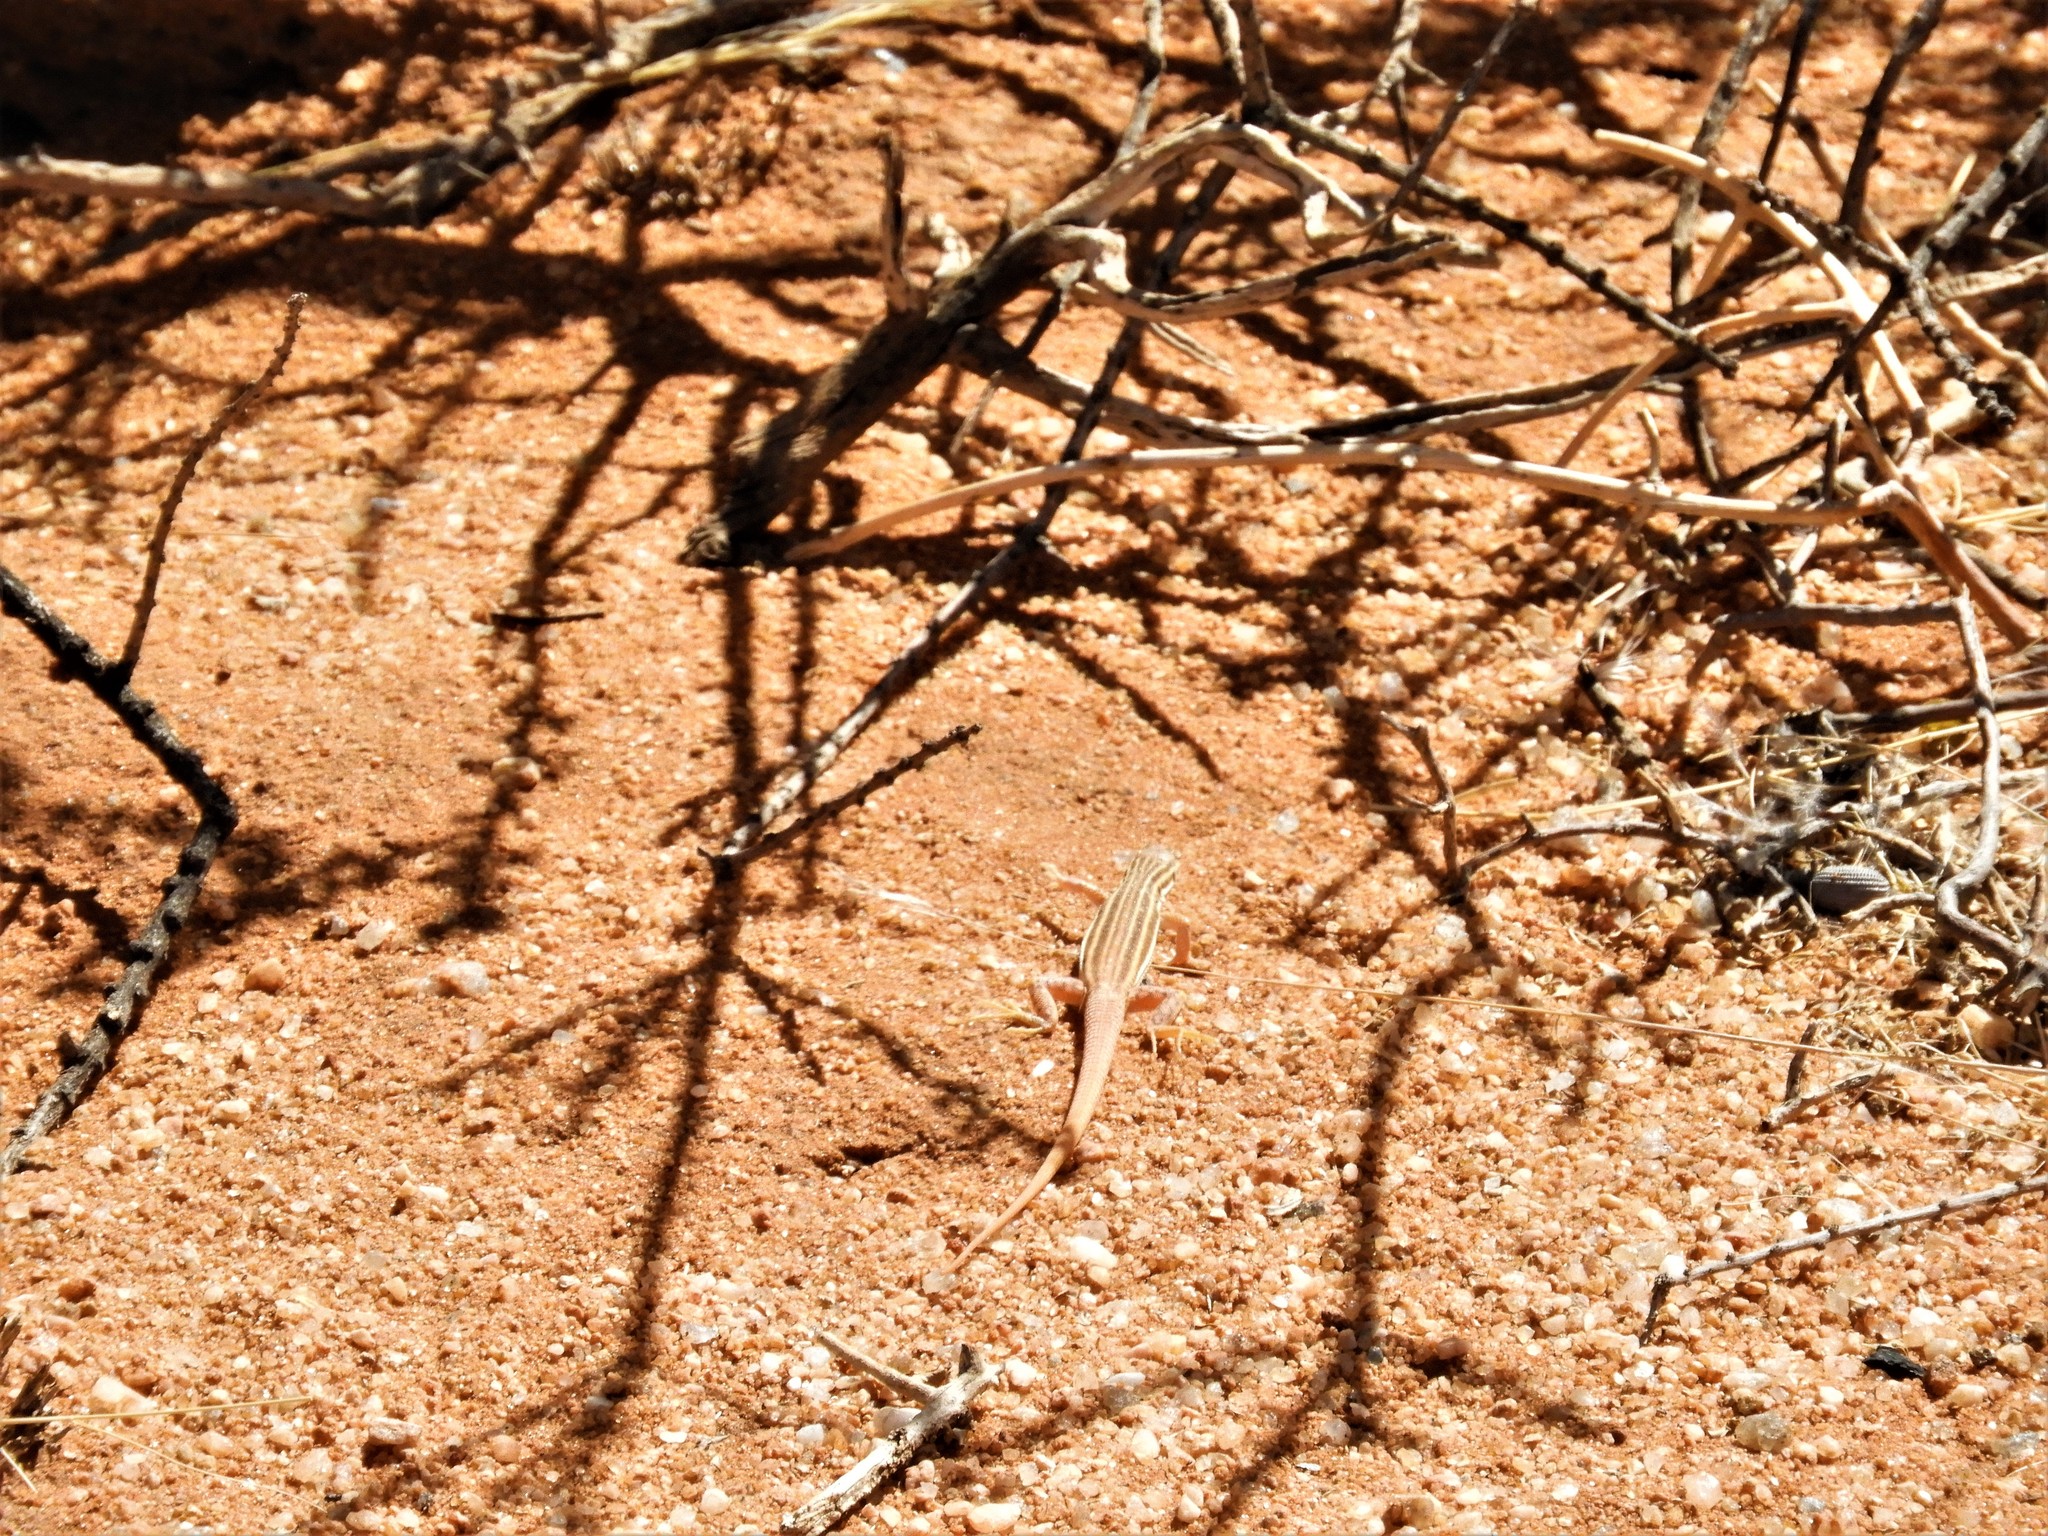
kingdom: Animalia
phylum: Chordata
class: Squamata
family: Lacertidae
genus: Pedioplanis
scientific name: Pedioplanis namaquensis
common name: Namaqua sand lizard
